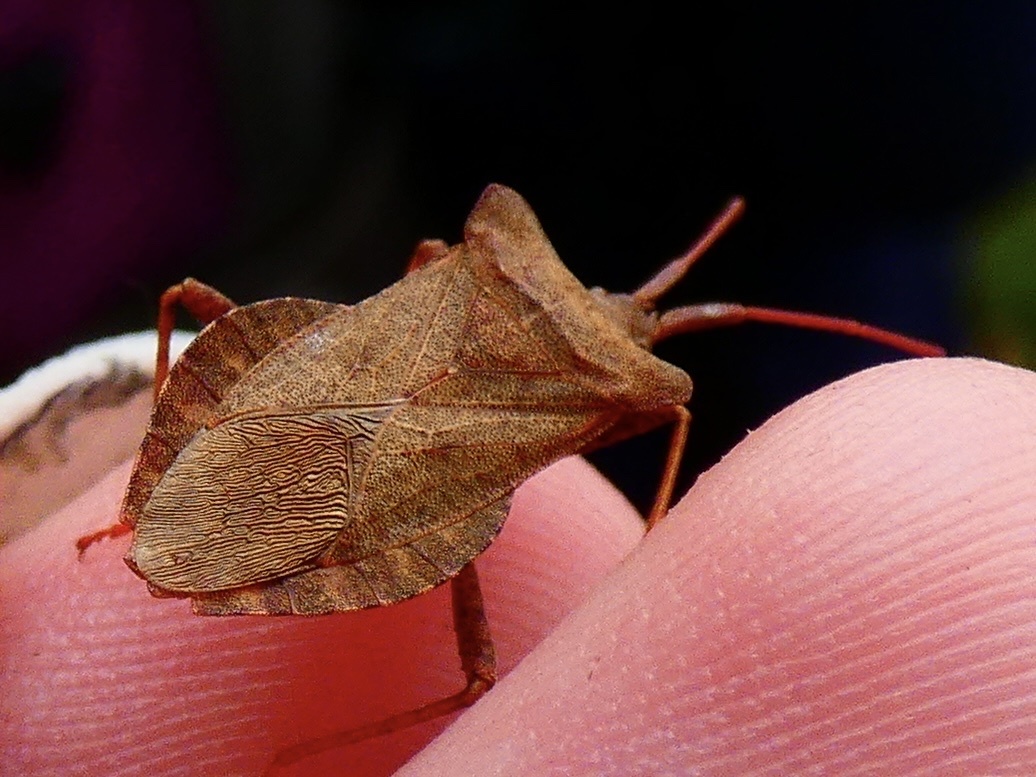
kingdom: Animalia
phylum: Arthropoda
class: Insecta
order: Hemiptera
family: Coreidae
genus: Coreus
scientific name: Coreus marginatus
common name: Dock bug
